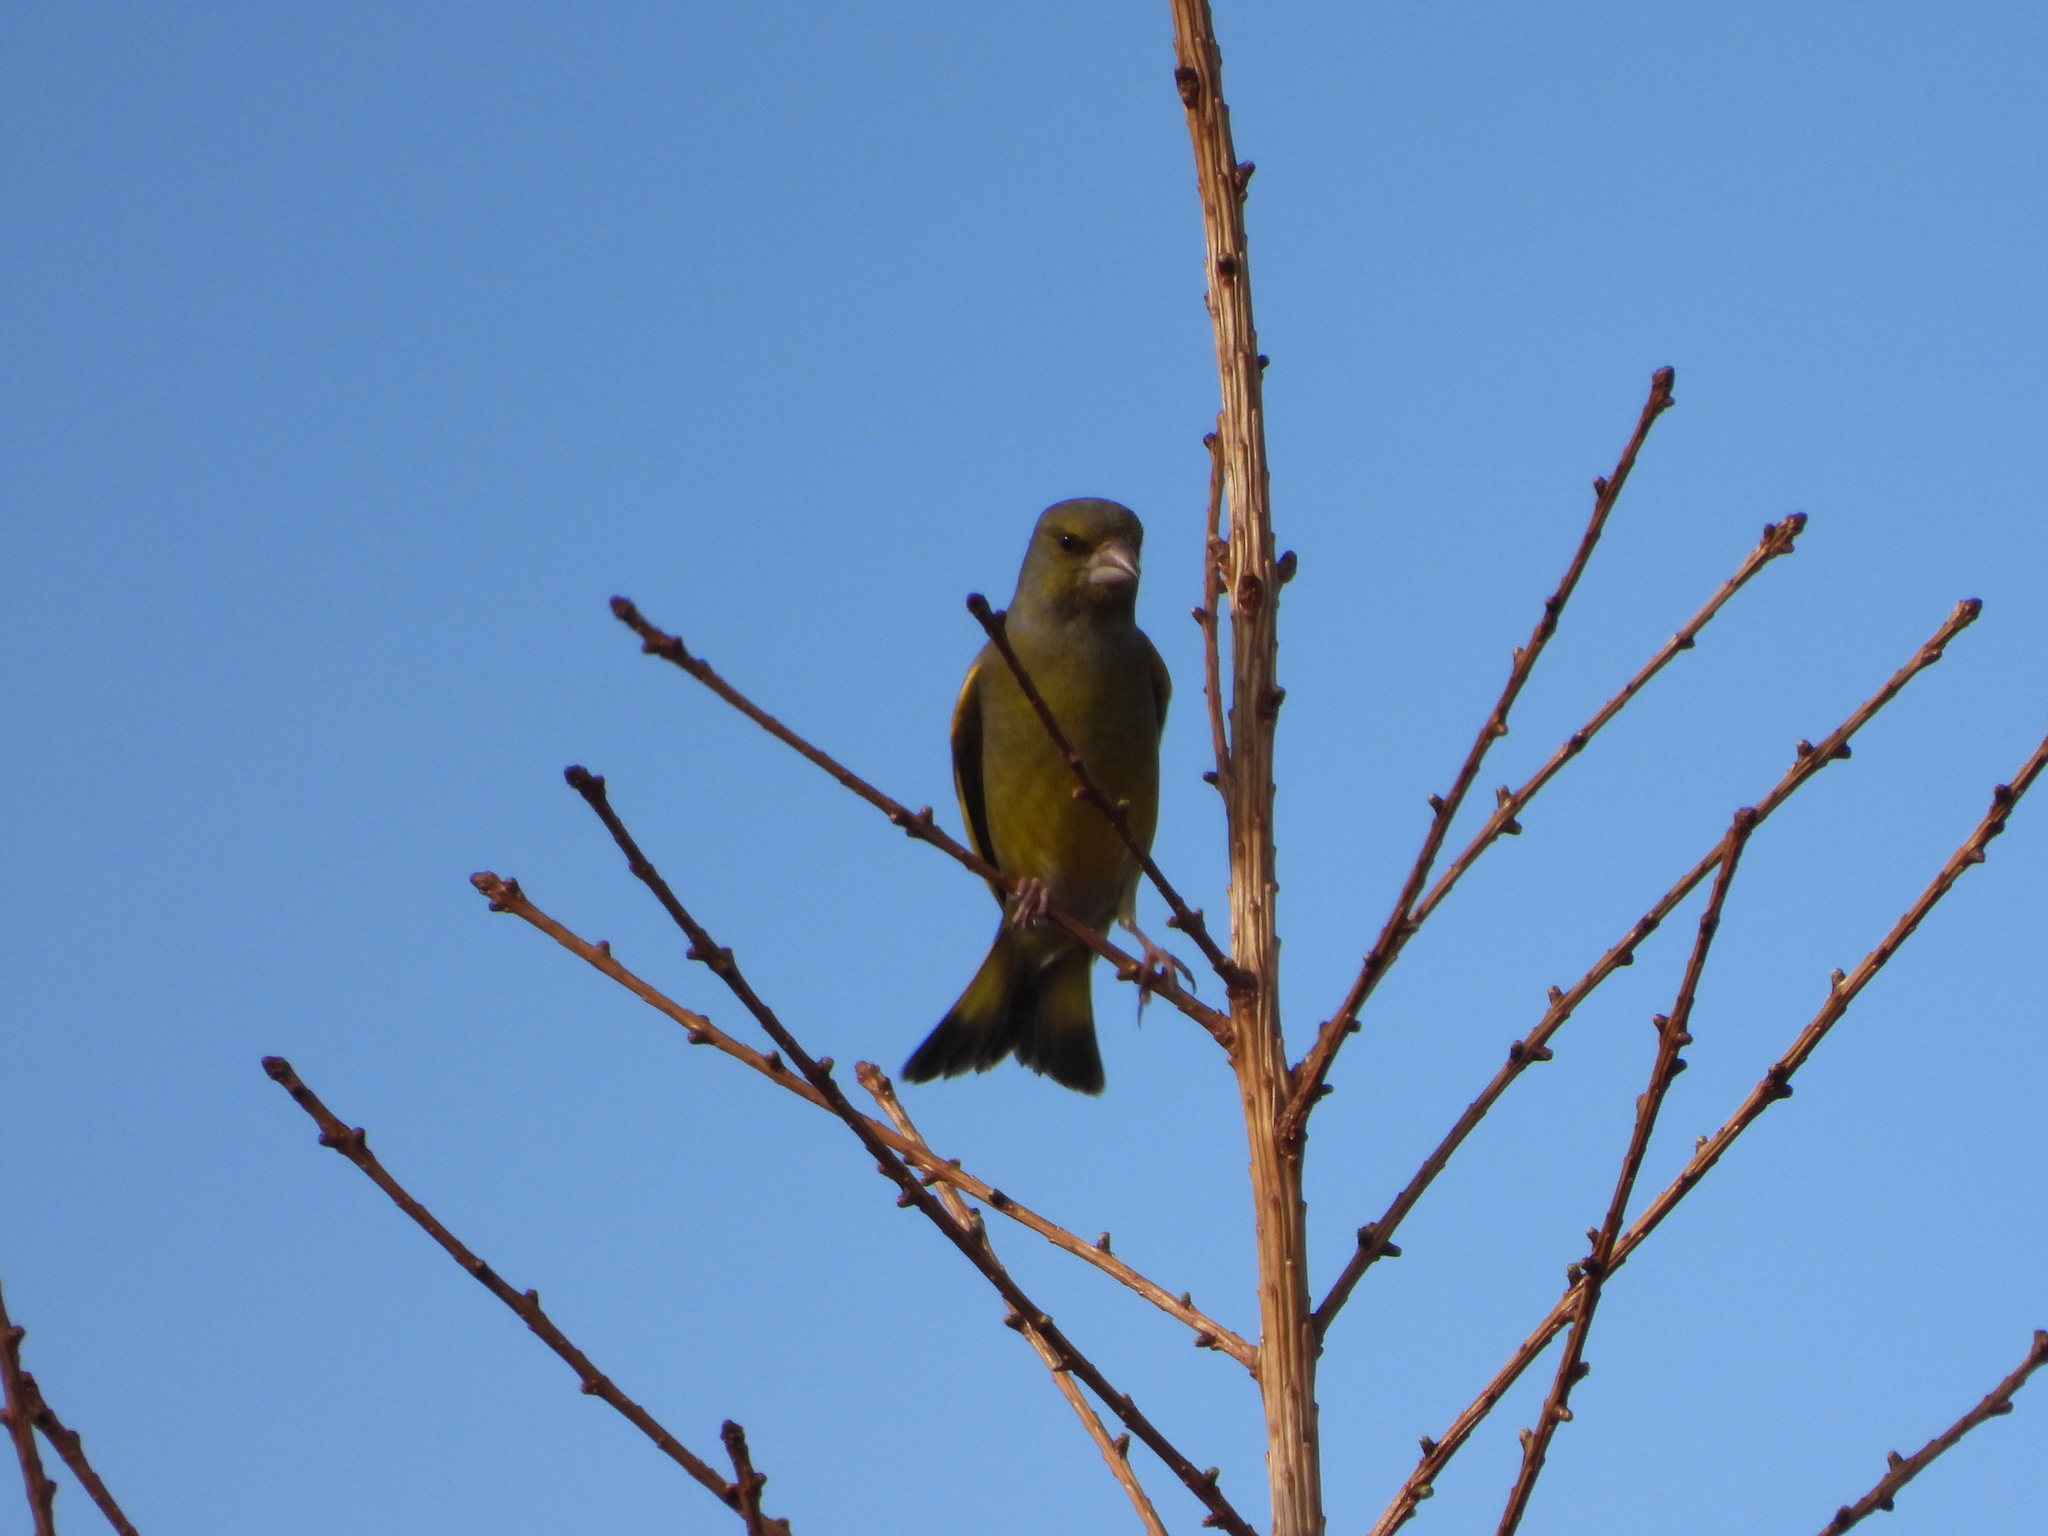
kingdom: Plantae
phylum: Tracheophyta
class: Liliopsida
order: Poales
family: Poaceae
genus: Chloris
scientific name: Chloris chloris
